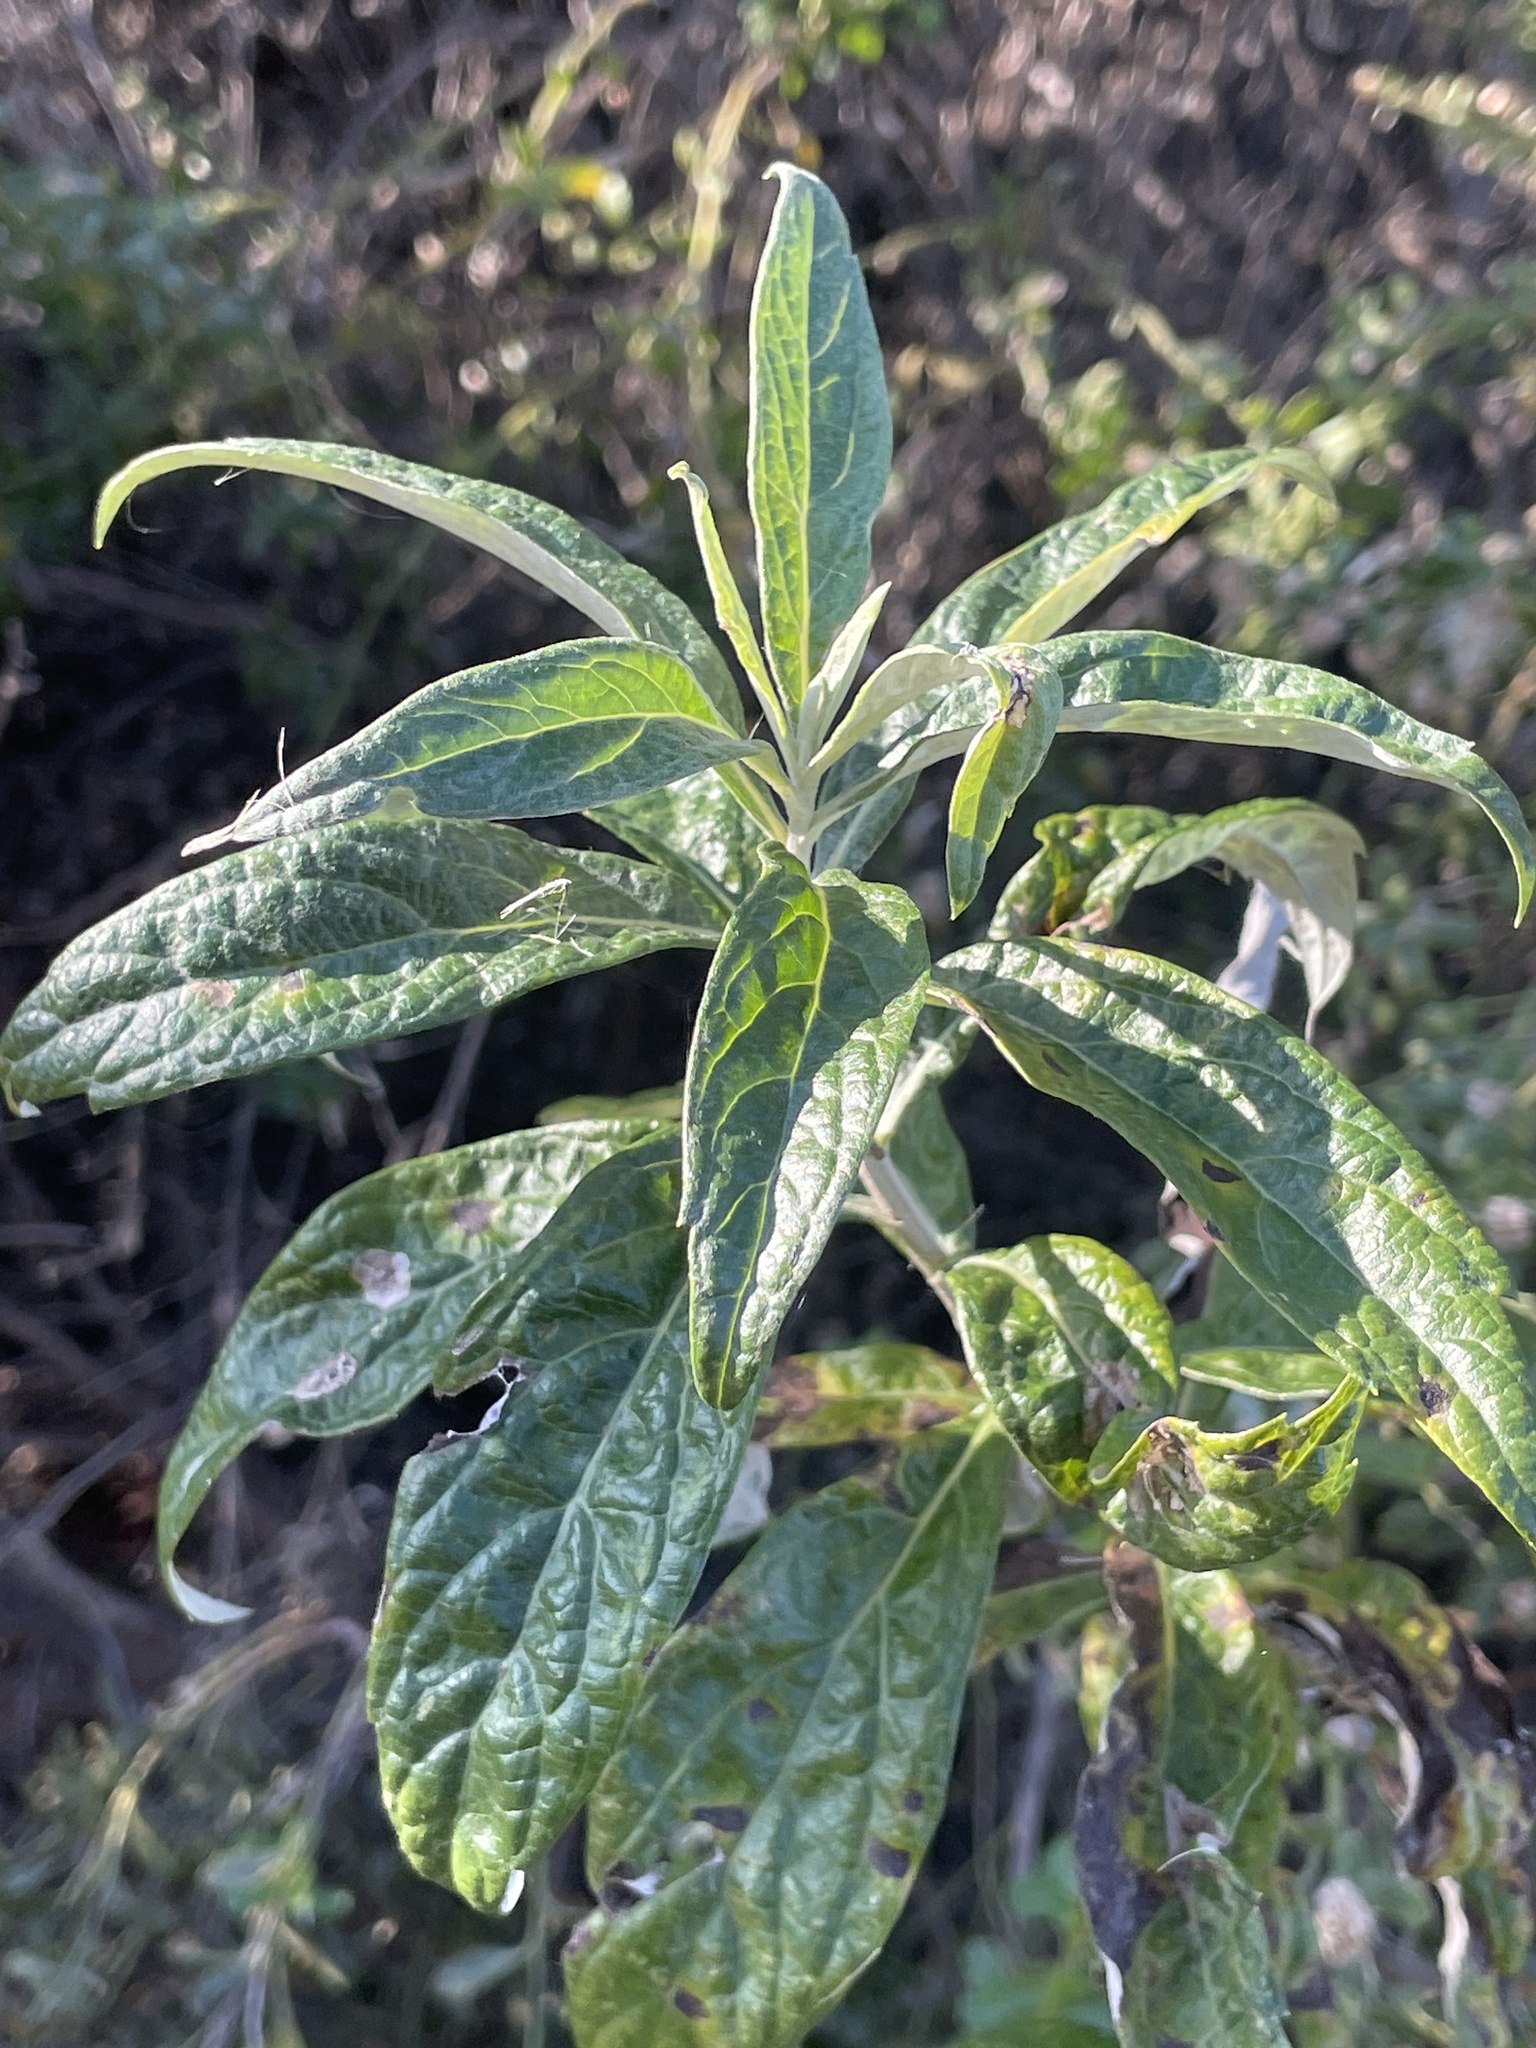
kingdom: Plantae
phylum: Tracheophyta
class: Magnoliopsida
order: Asterales
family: Asteraceae
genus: Artemisia
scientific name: Artemisia douglasiana
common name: Northwest mugwort
